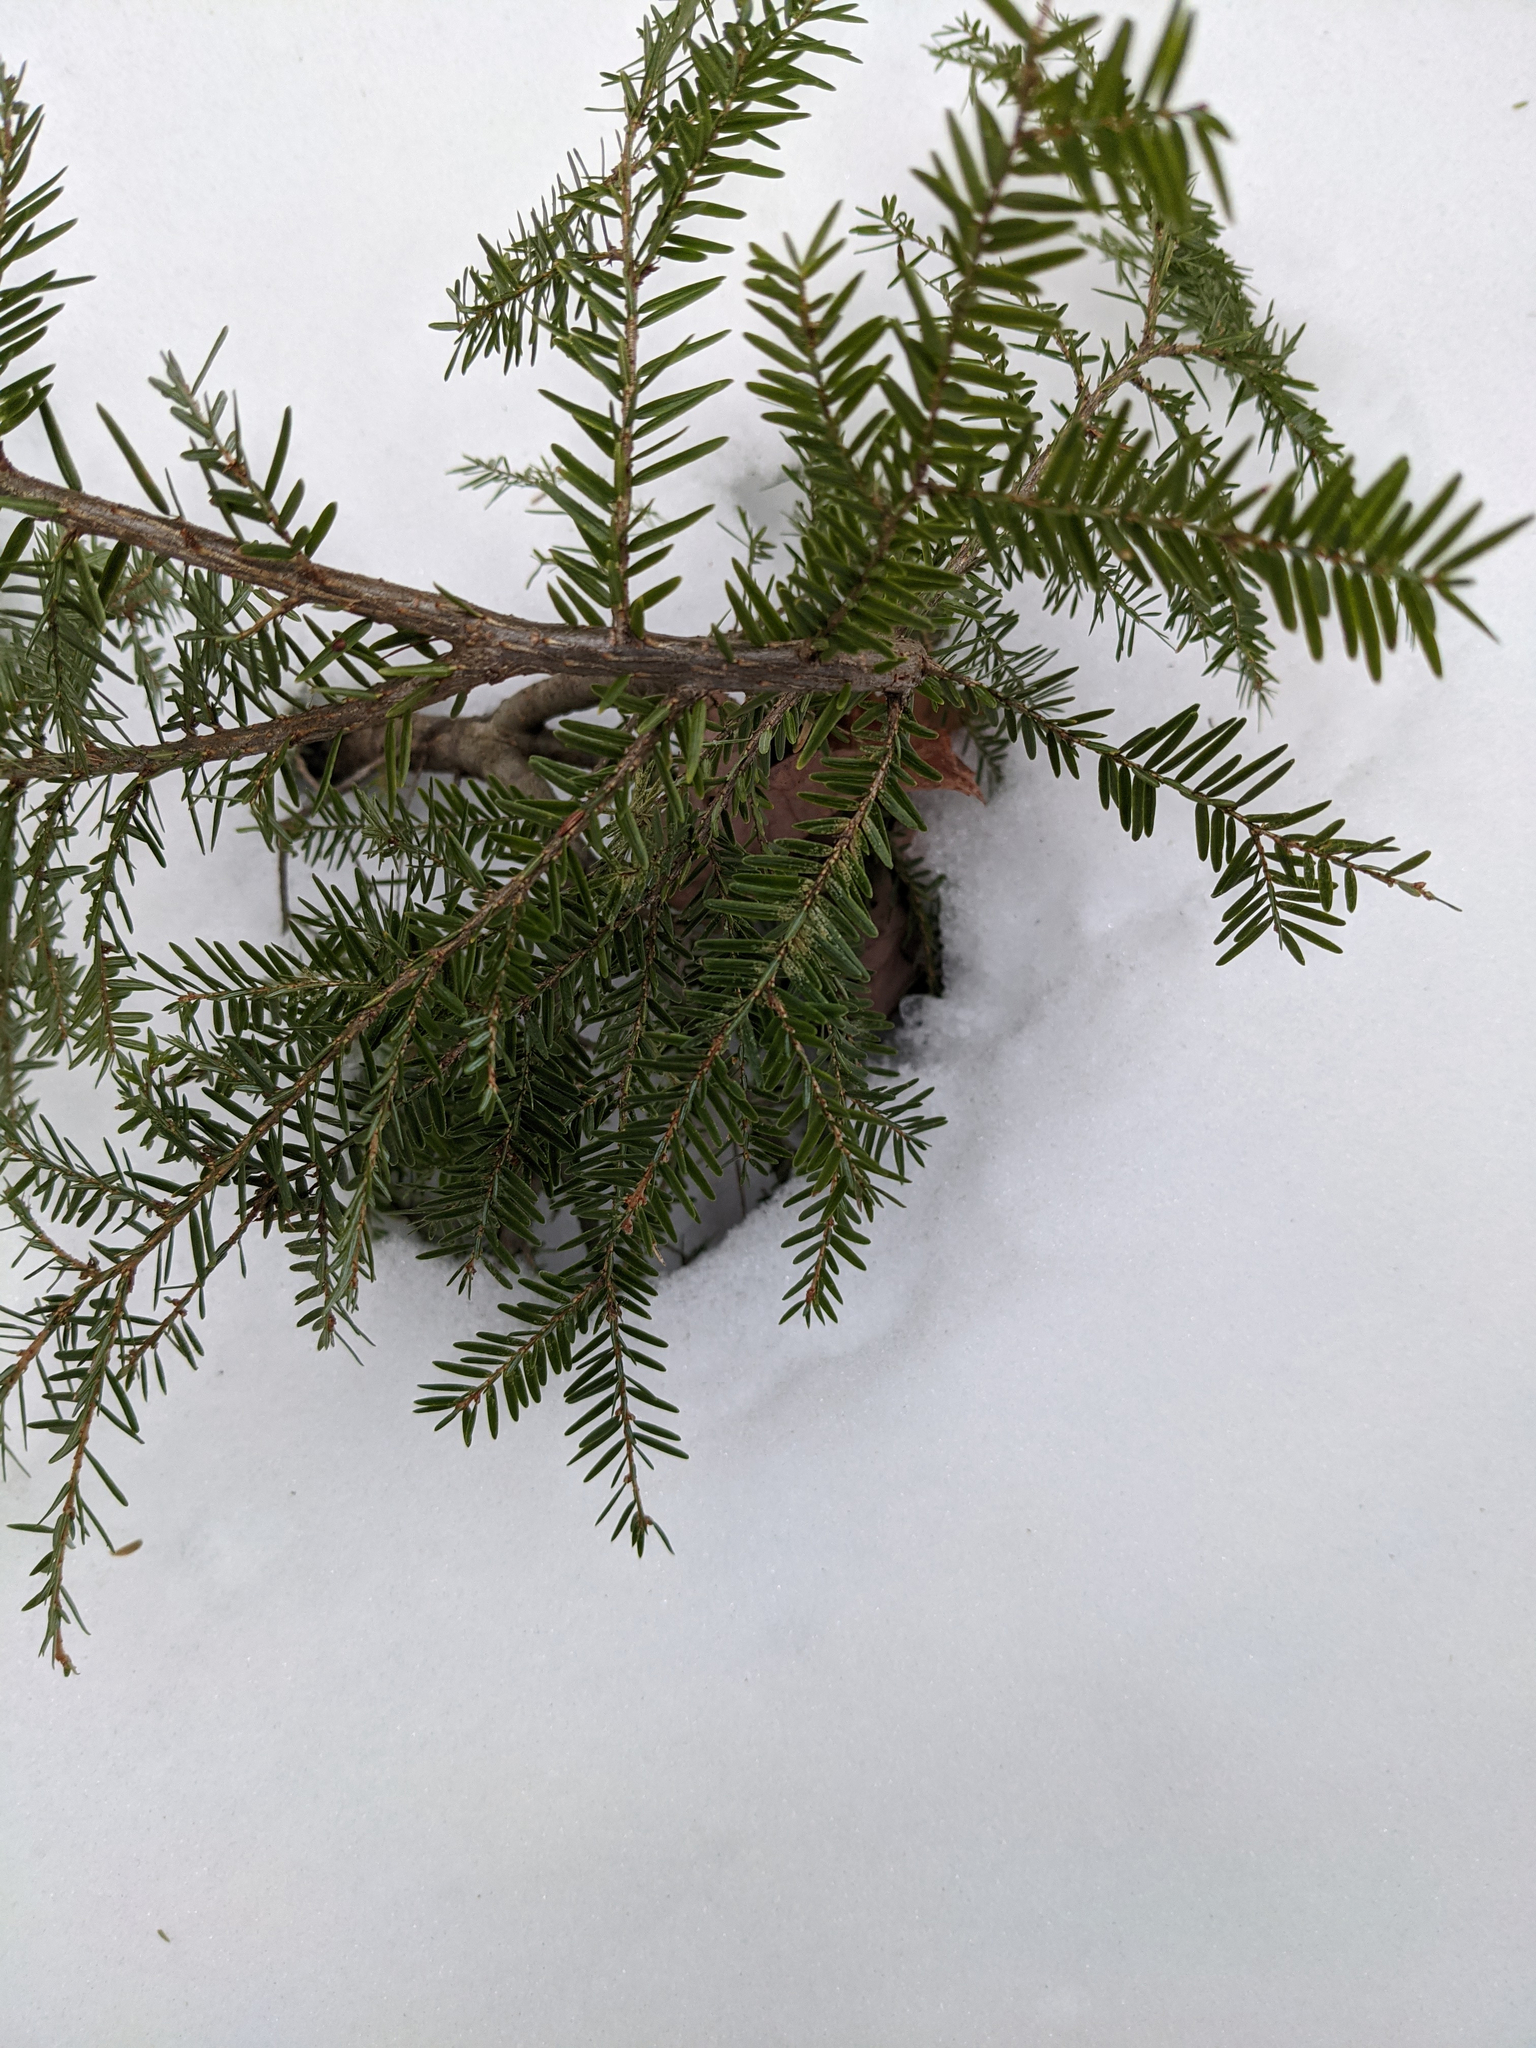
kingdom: Plantae
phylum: Tracheophyta
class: Pinopsida
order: Pinales
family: Pinaceae
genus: Tsuga
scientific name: Tsuga canadensis
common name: Eastern hemlock
